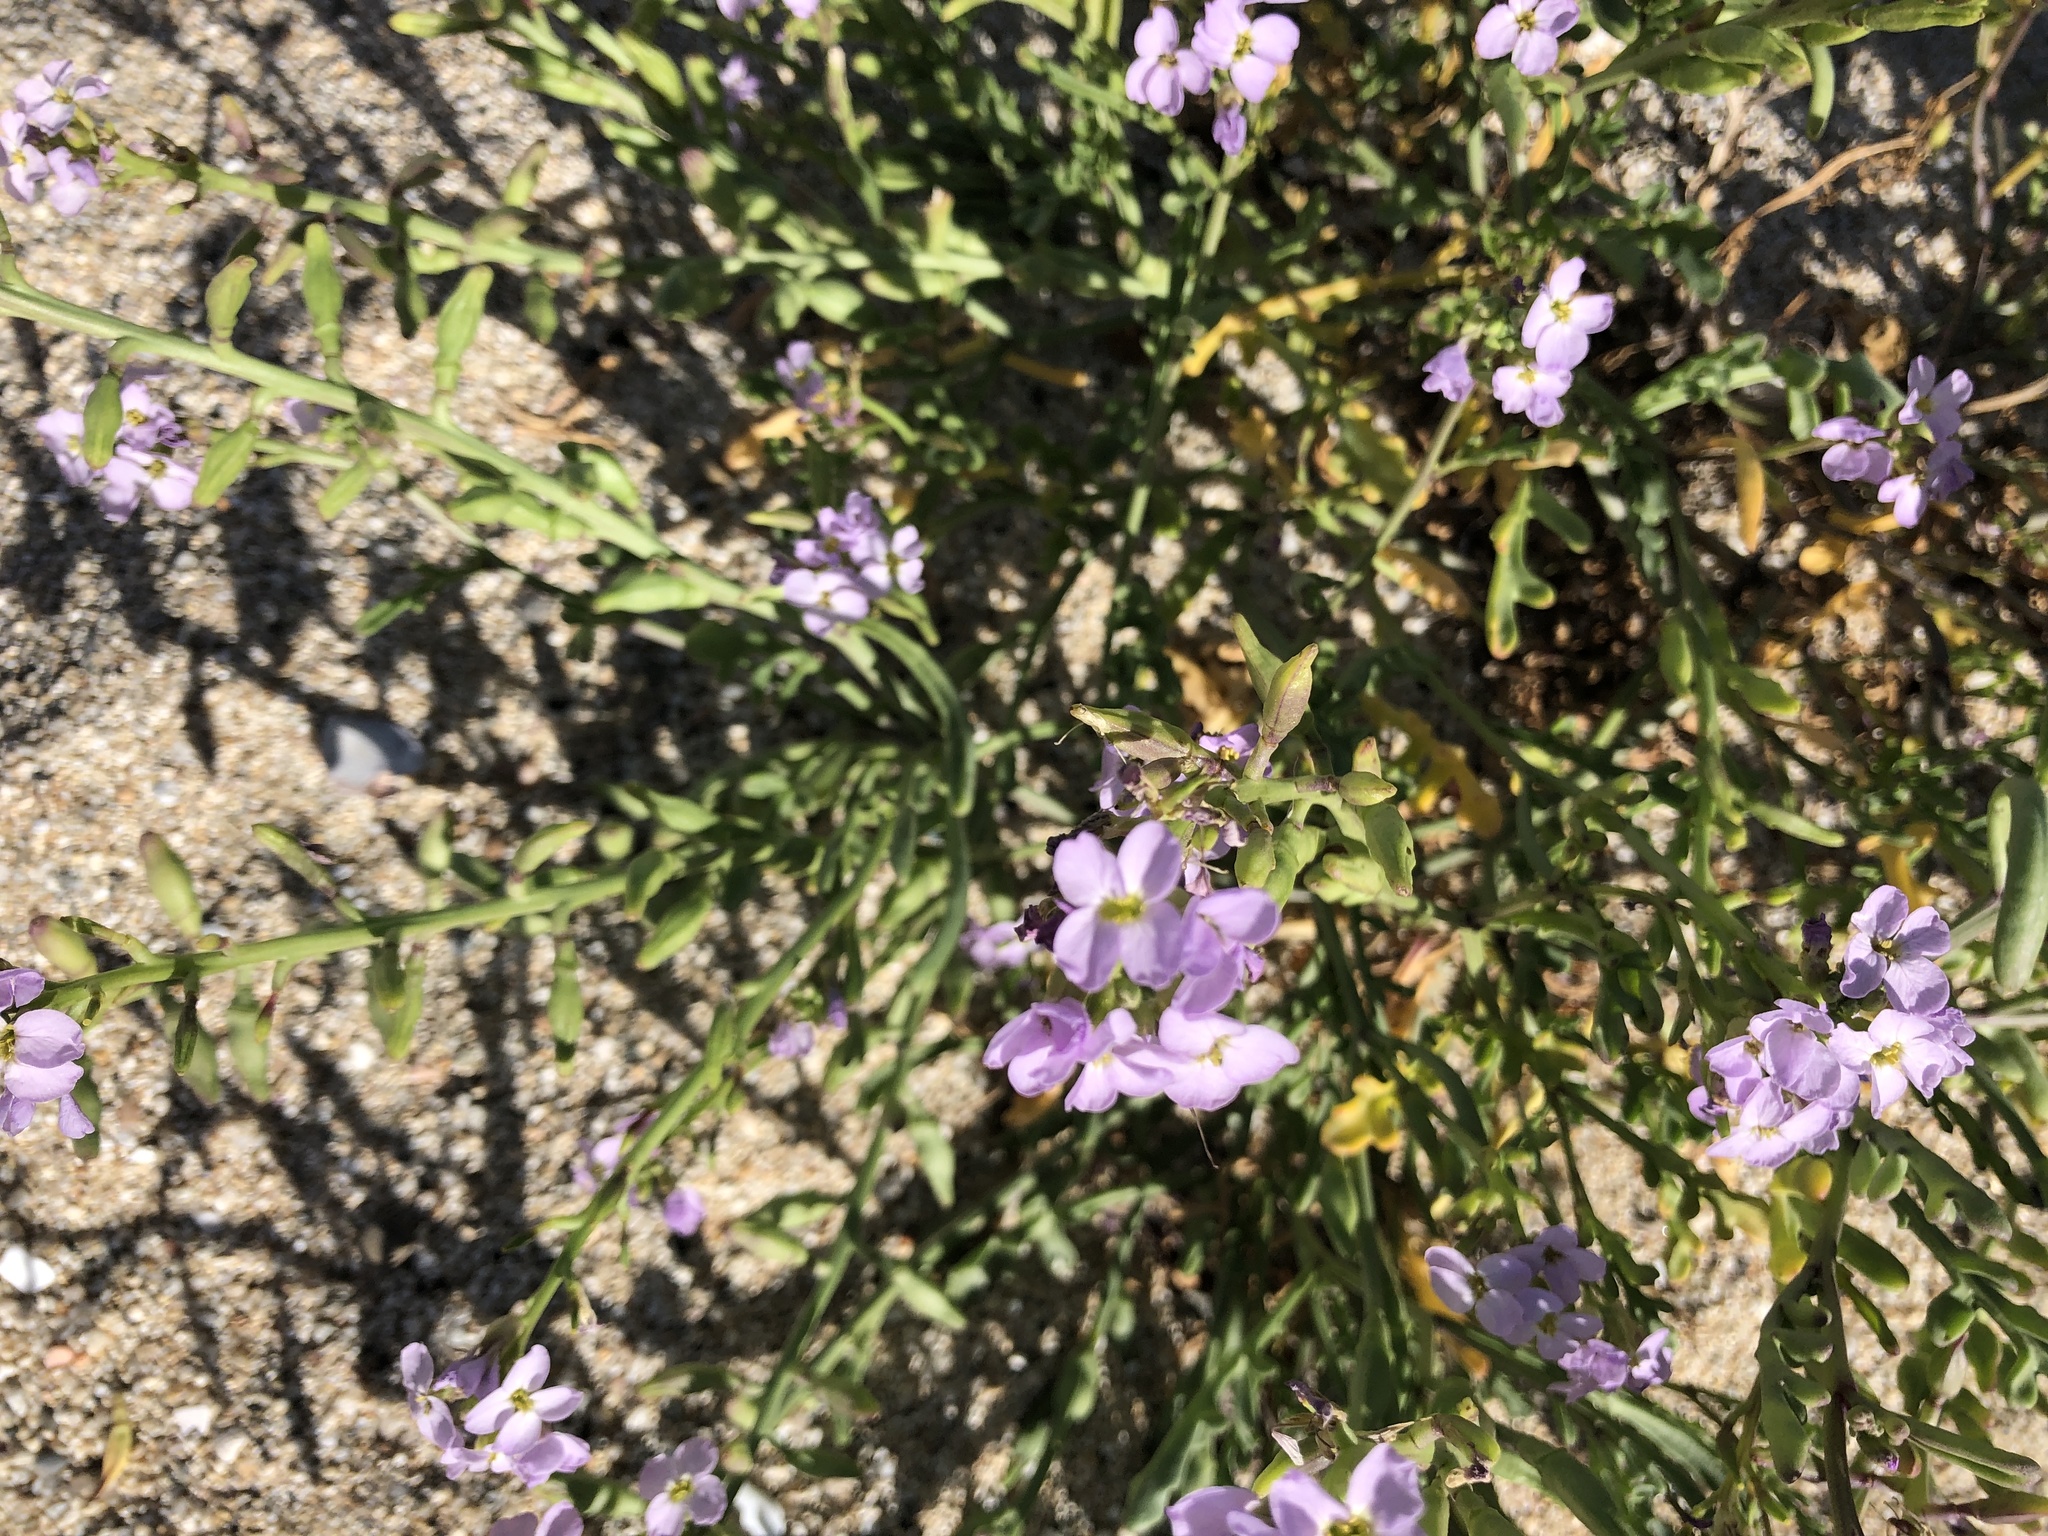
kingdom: Plantae
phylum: Tracheophyta
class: Magnoliopsida
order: Brassicales
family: Brassicaceae
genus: Cakile
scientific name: Cakile maritima
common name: Sea rocket
